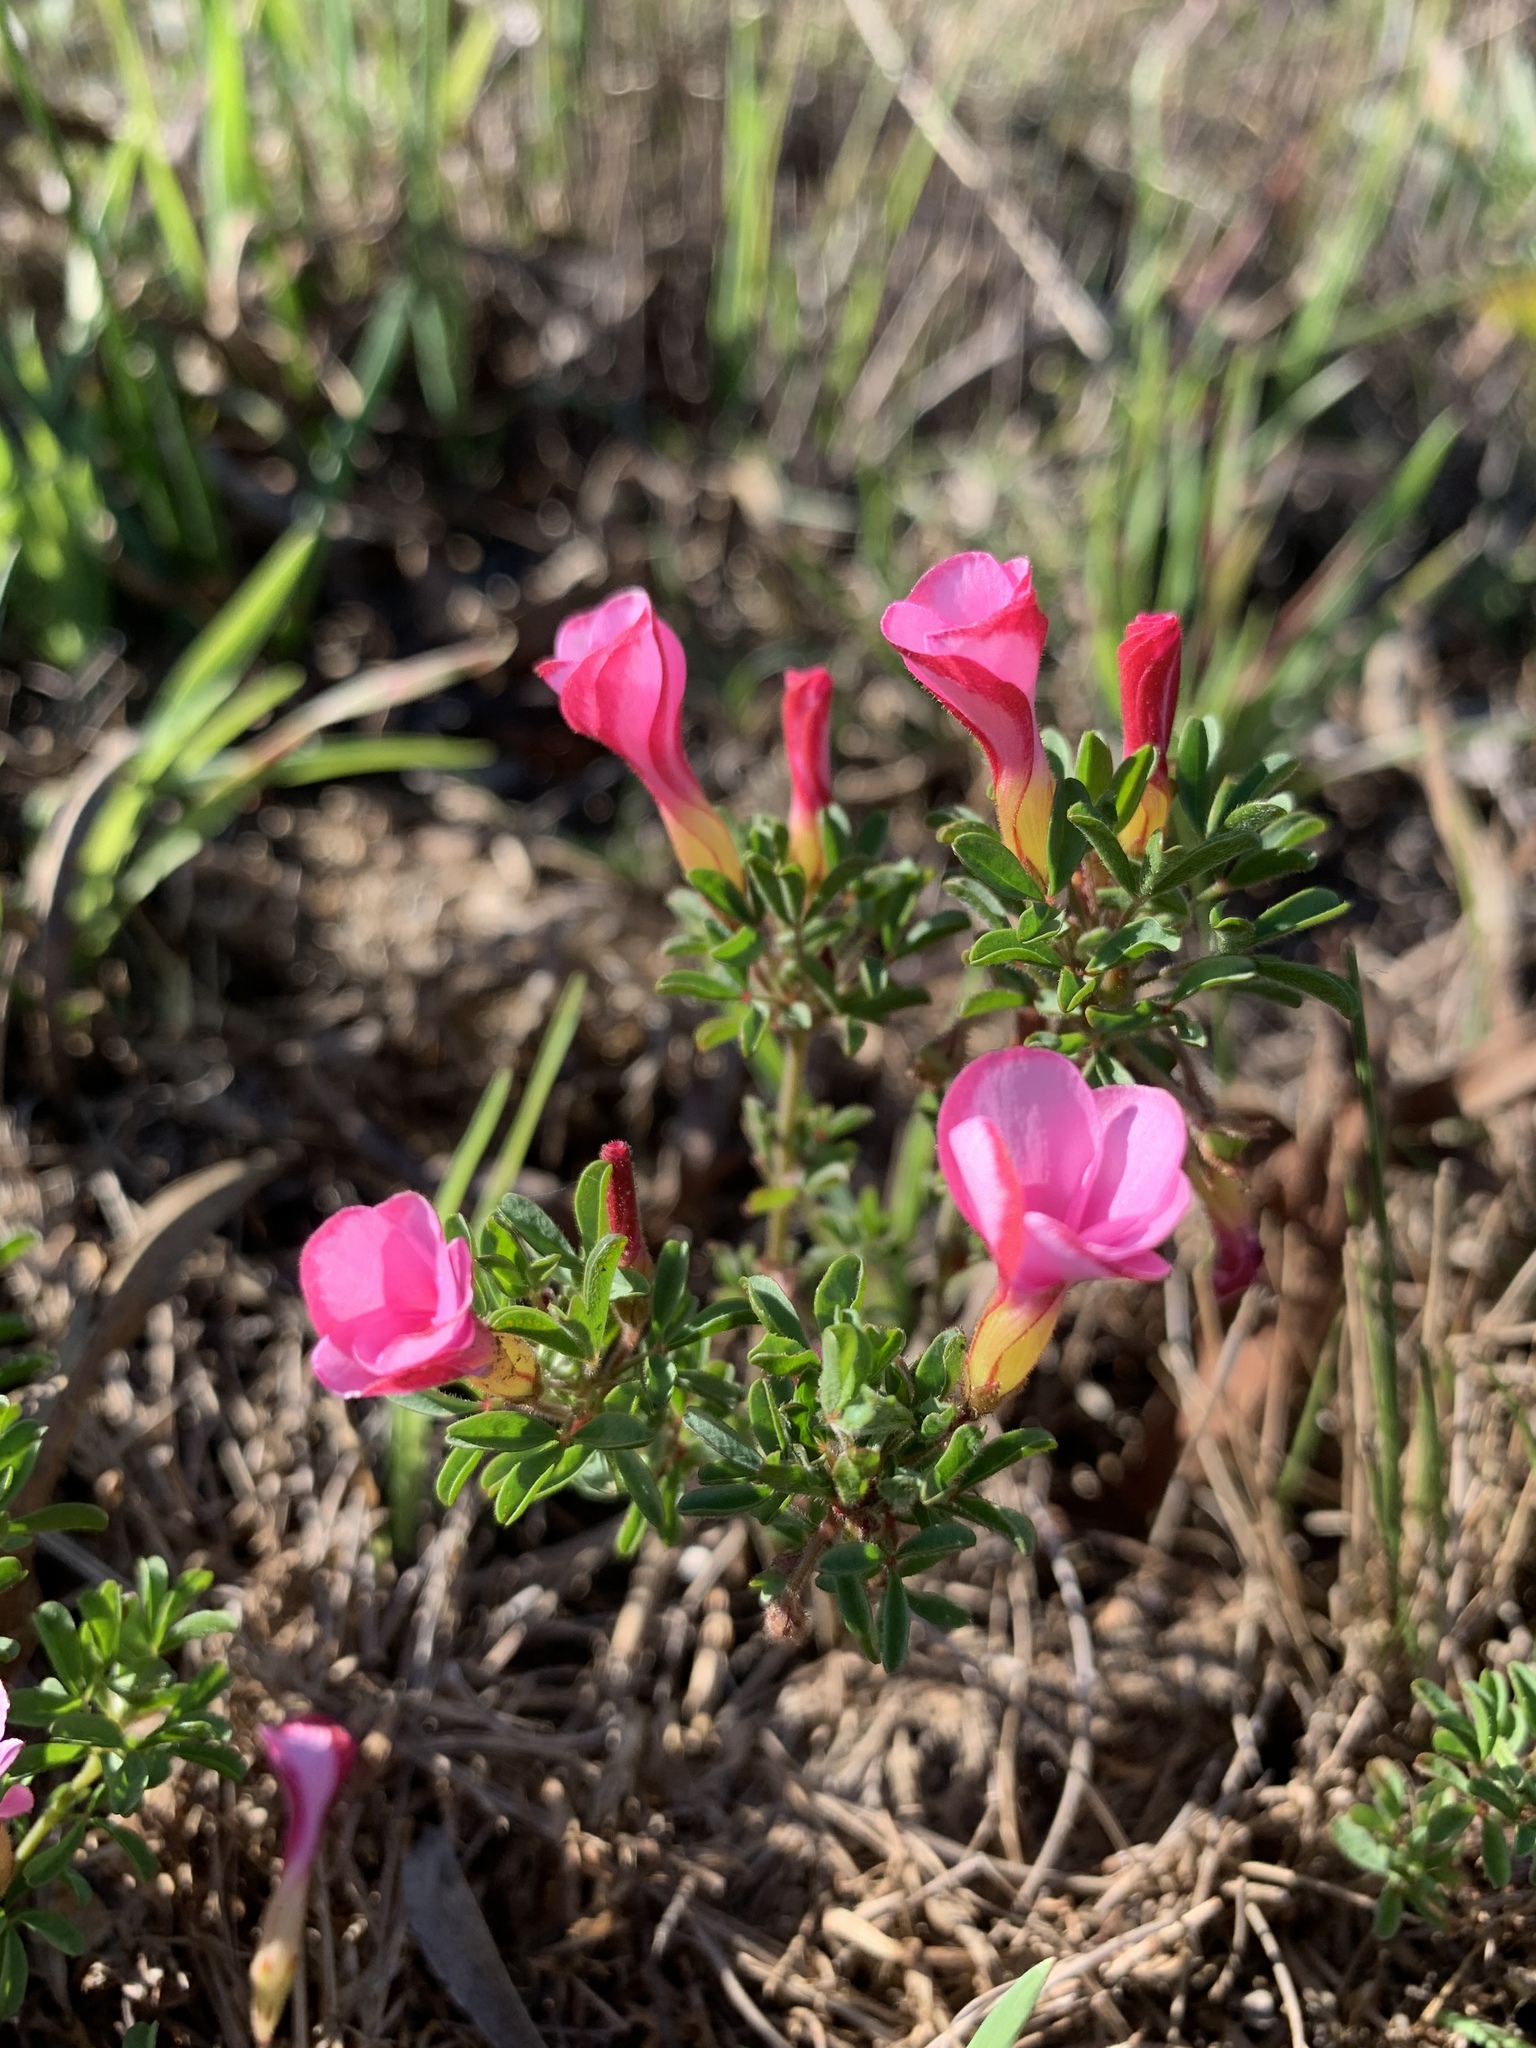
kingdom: Plantae
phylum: Tracheophyta
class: Magnoliopsida
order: Oxalidales
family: Oxalidaceae
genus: Oxalis
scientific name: Oxalis multicaulis
